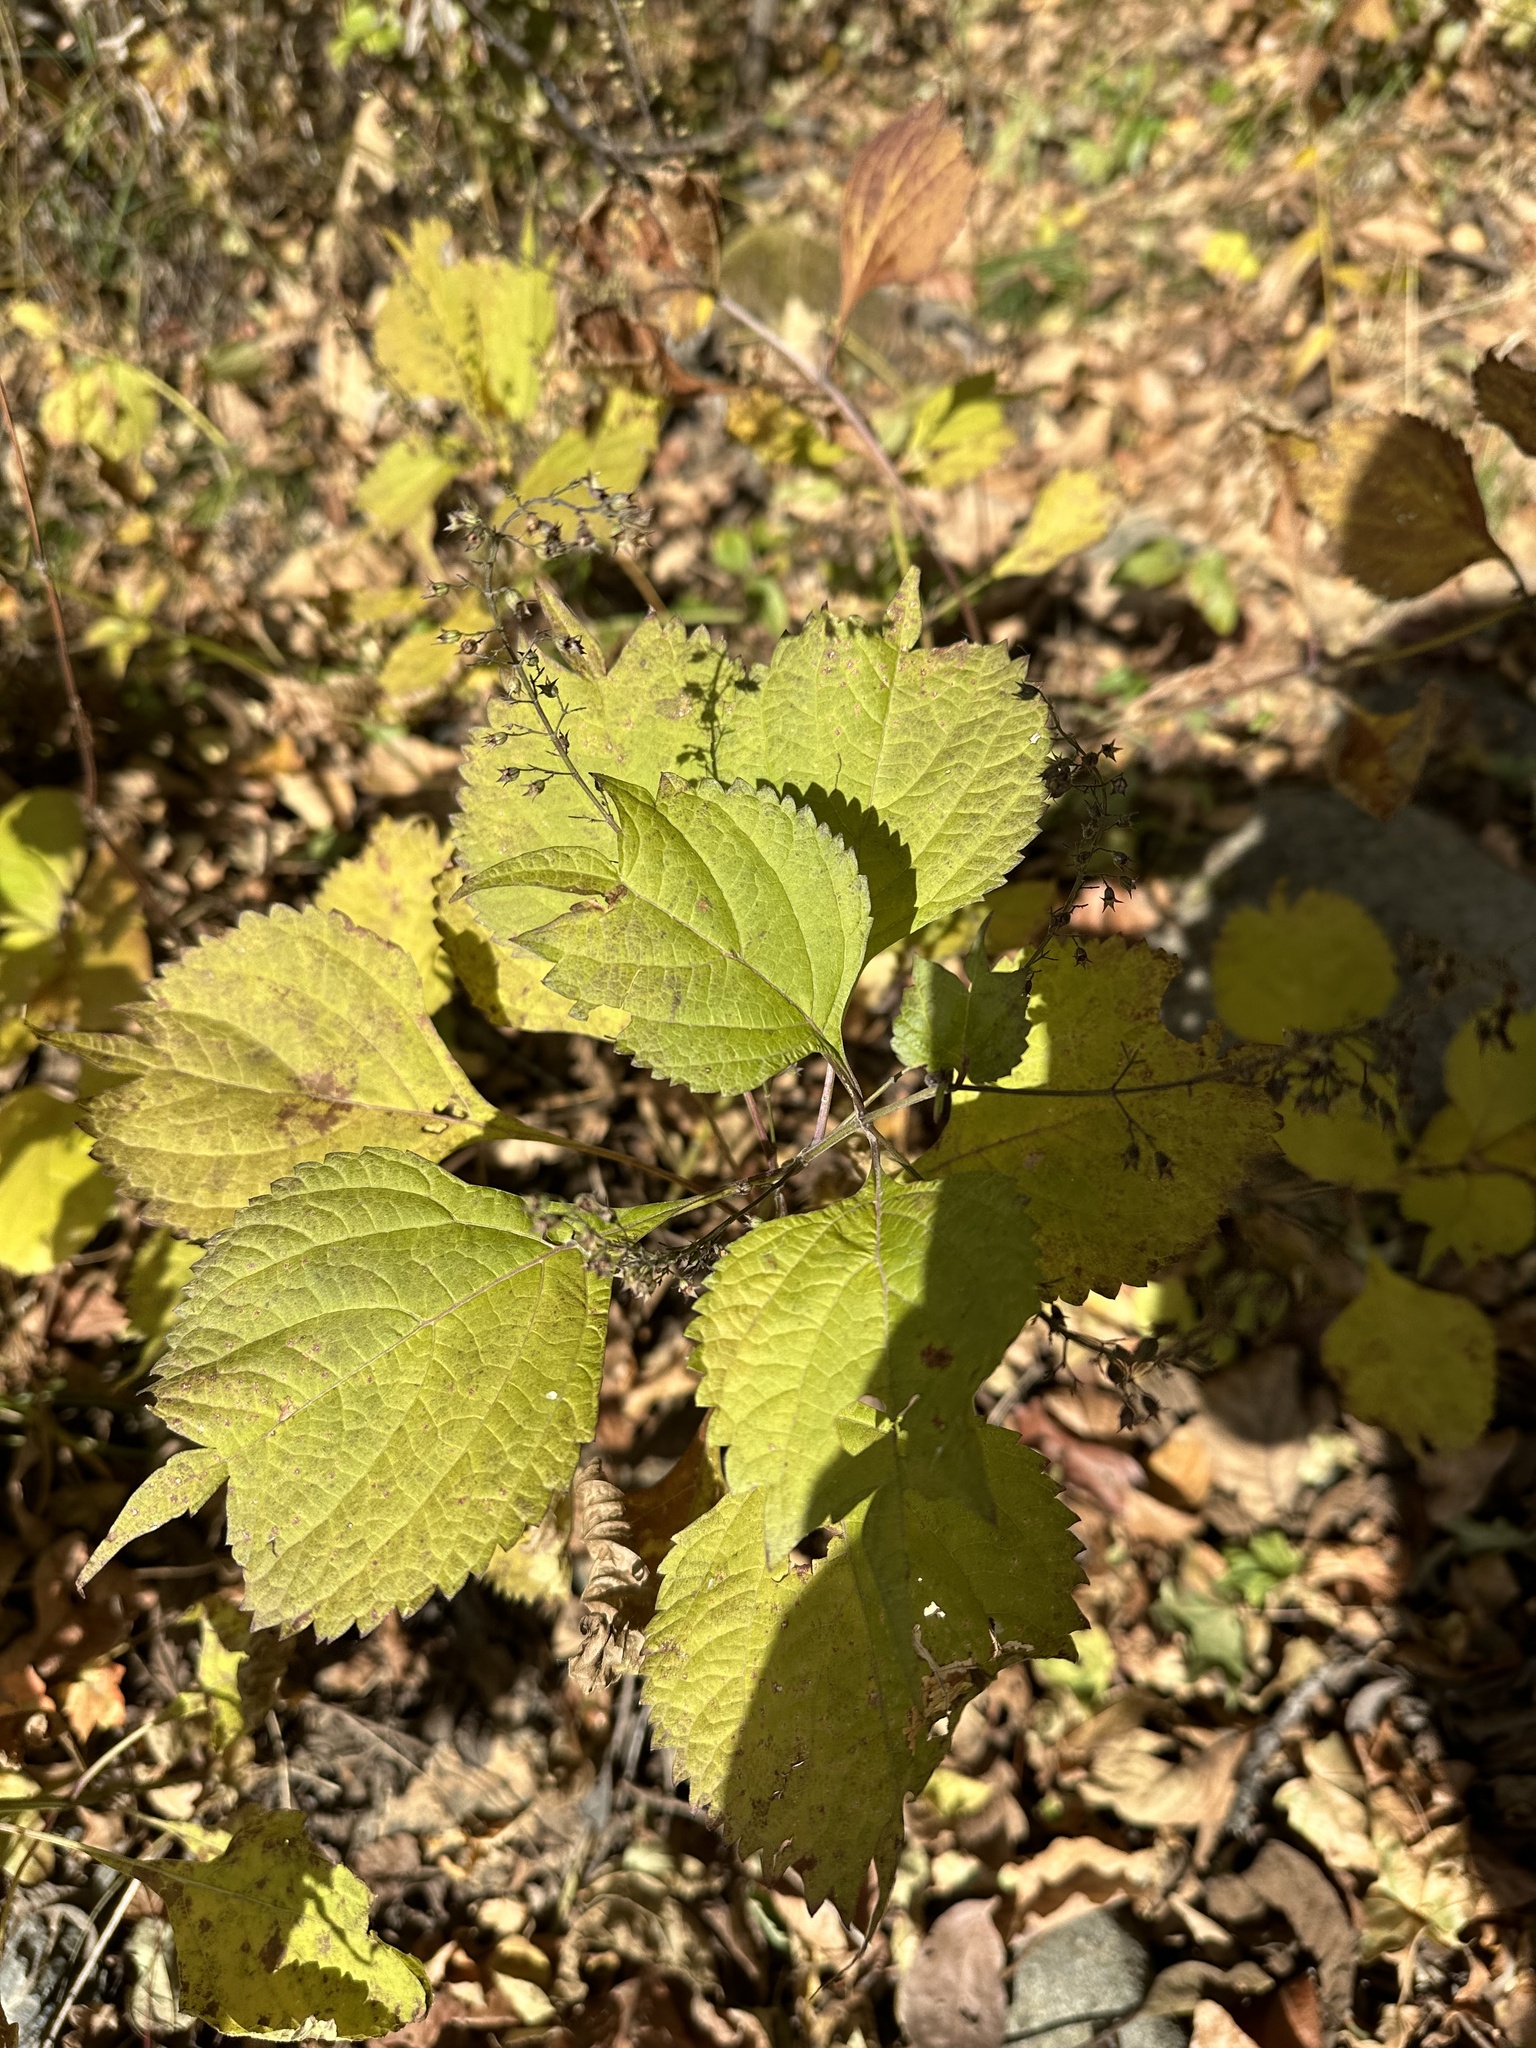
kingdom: Plantae
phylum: Tracheophyta
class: Magnoliopsida
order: Lamiales
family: Lamiaceae
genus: Isodon
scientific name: Isodon excisus
